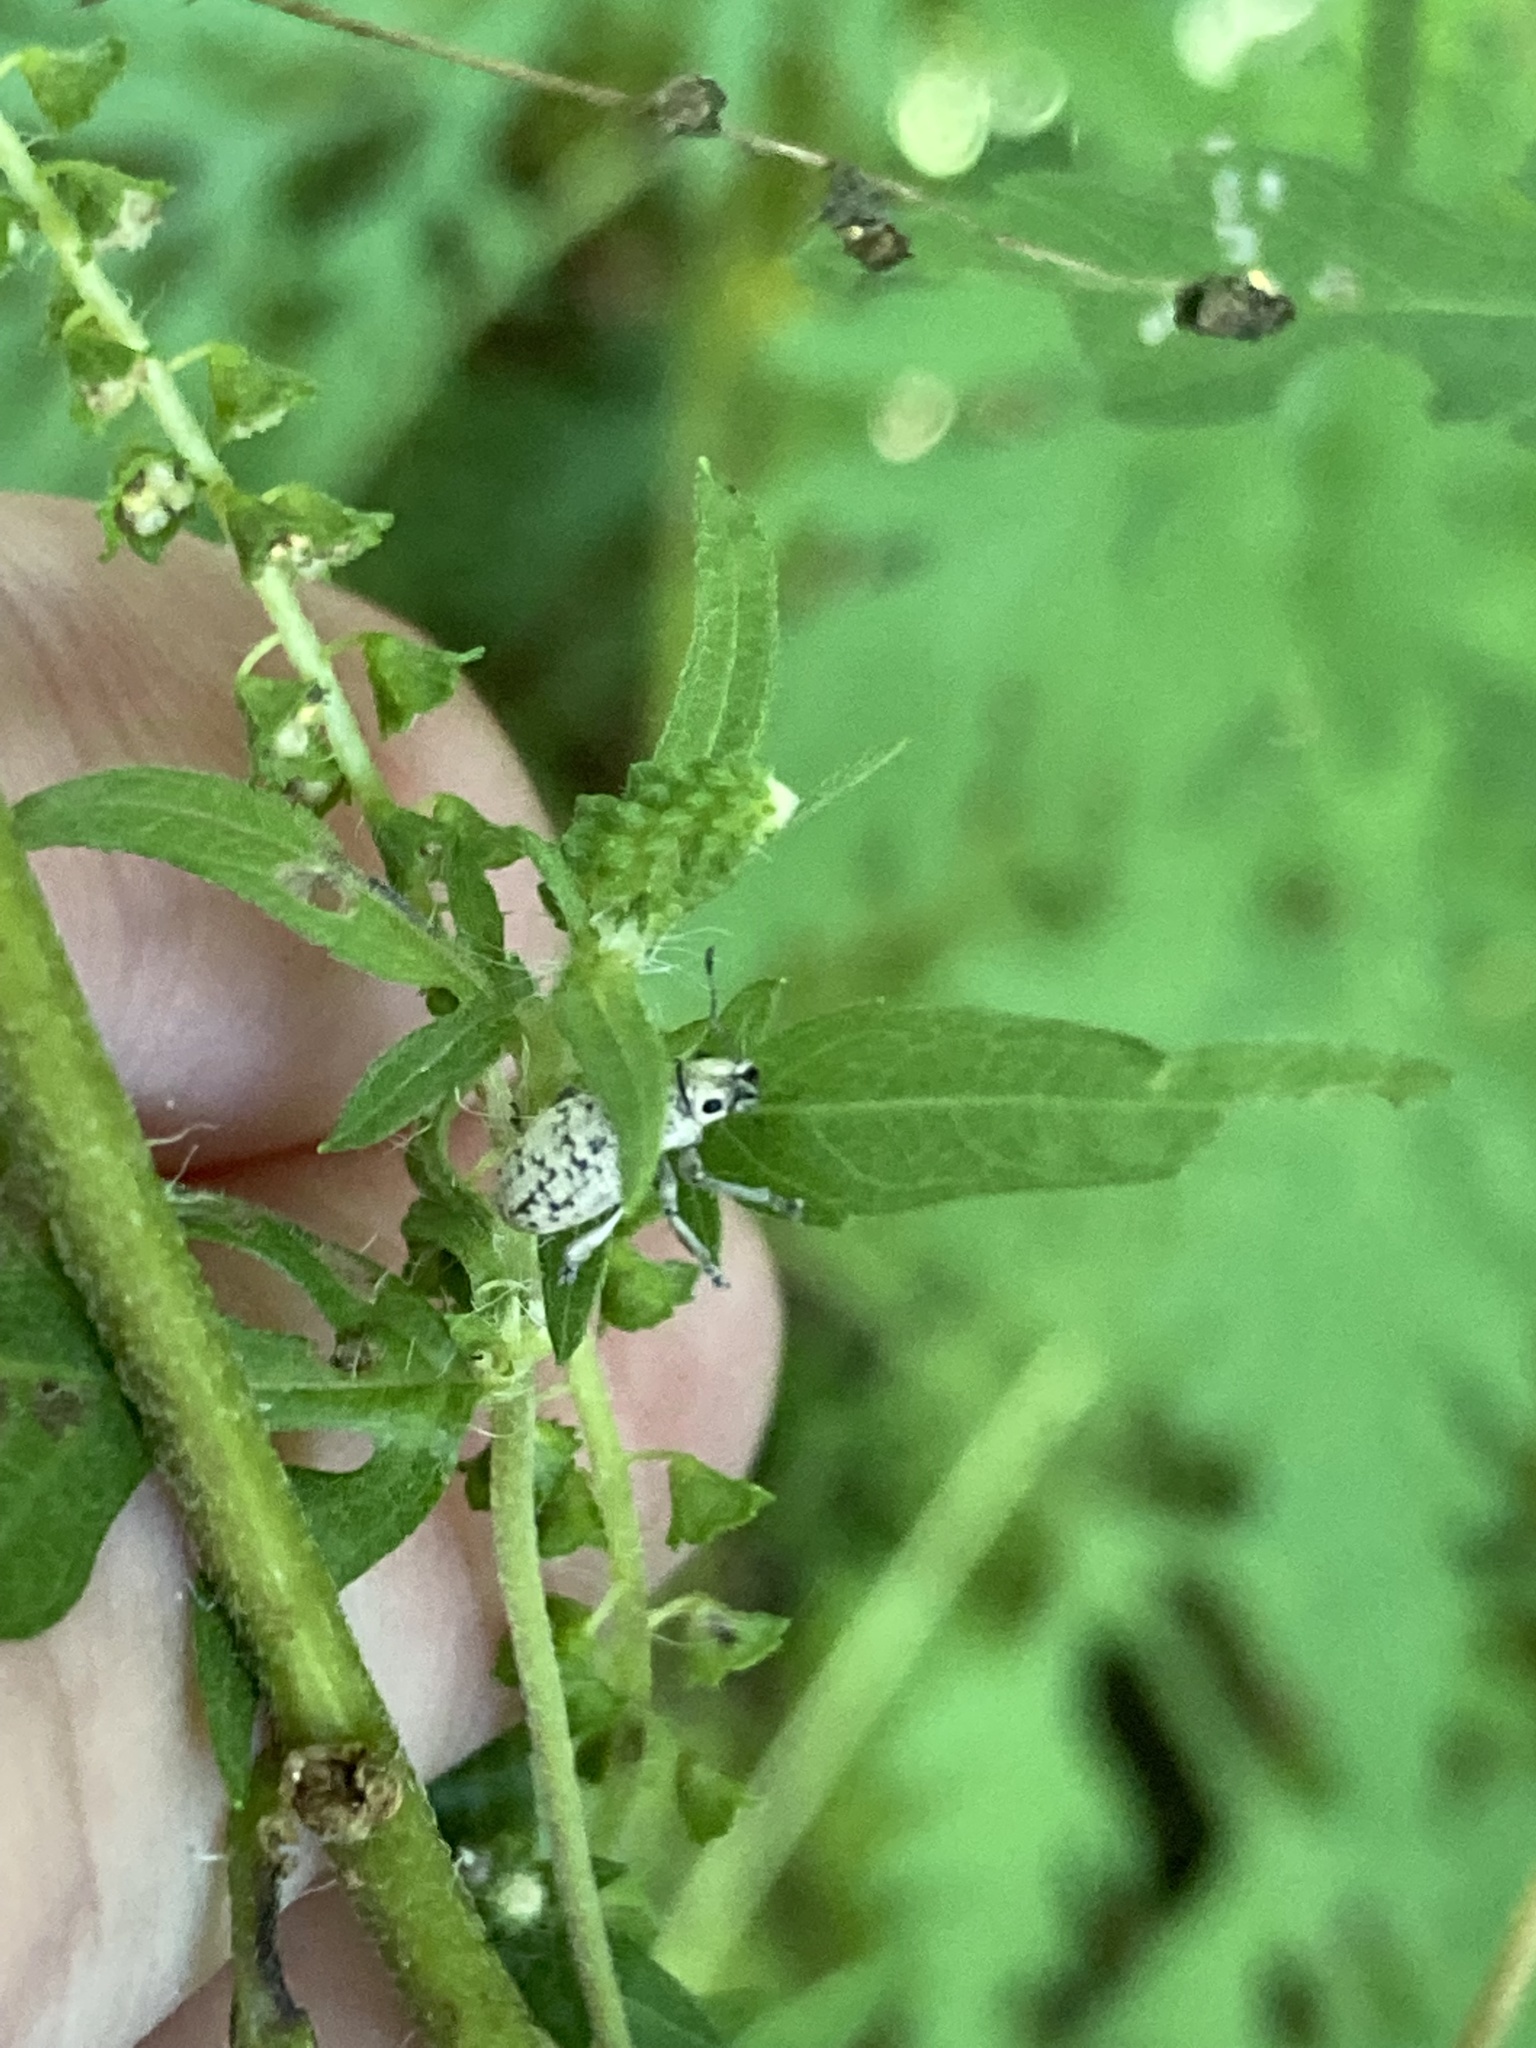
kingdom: Animalia
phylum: Arthropoda
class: Insecta
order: Coleoptera
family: Curculionidae
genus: Artipus
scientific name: Artipus floridanus
